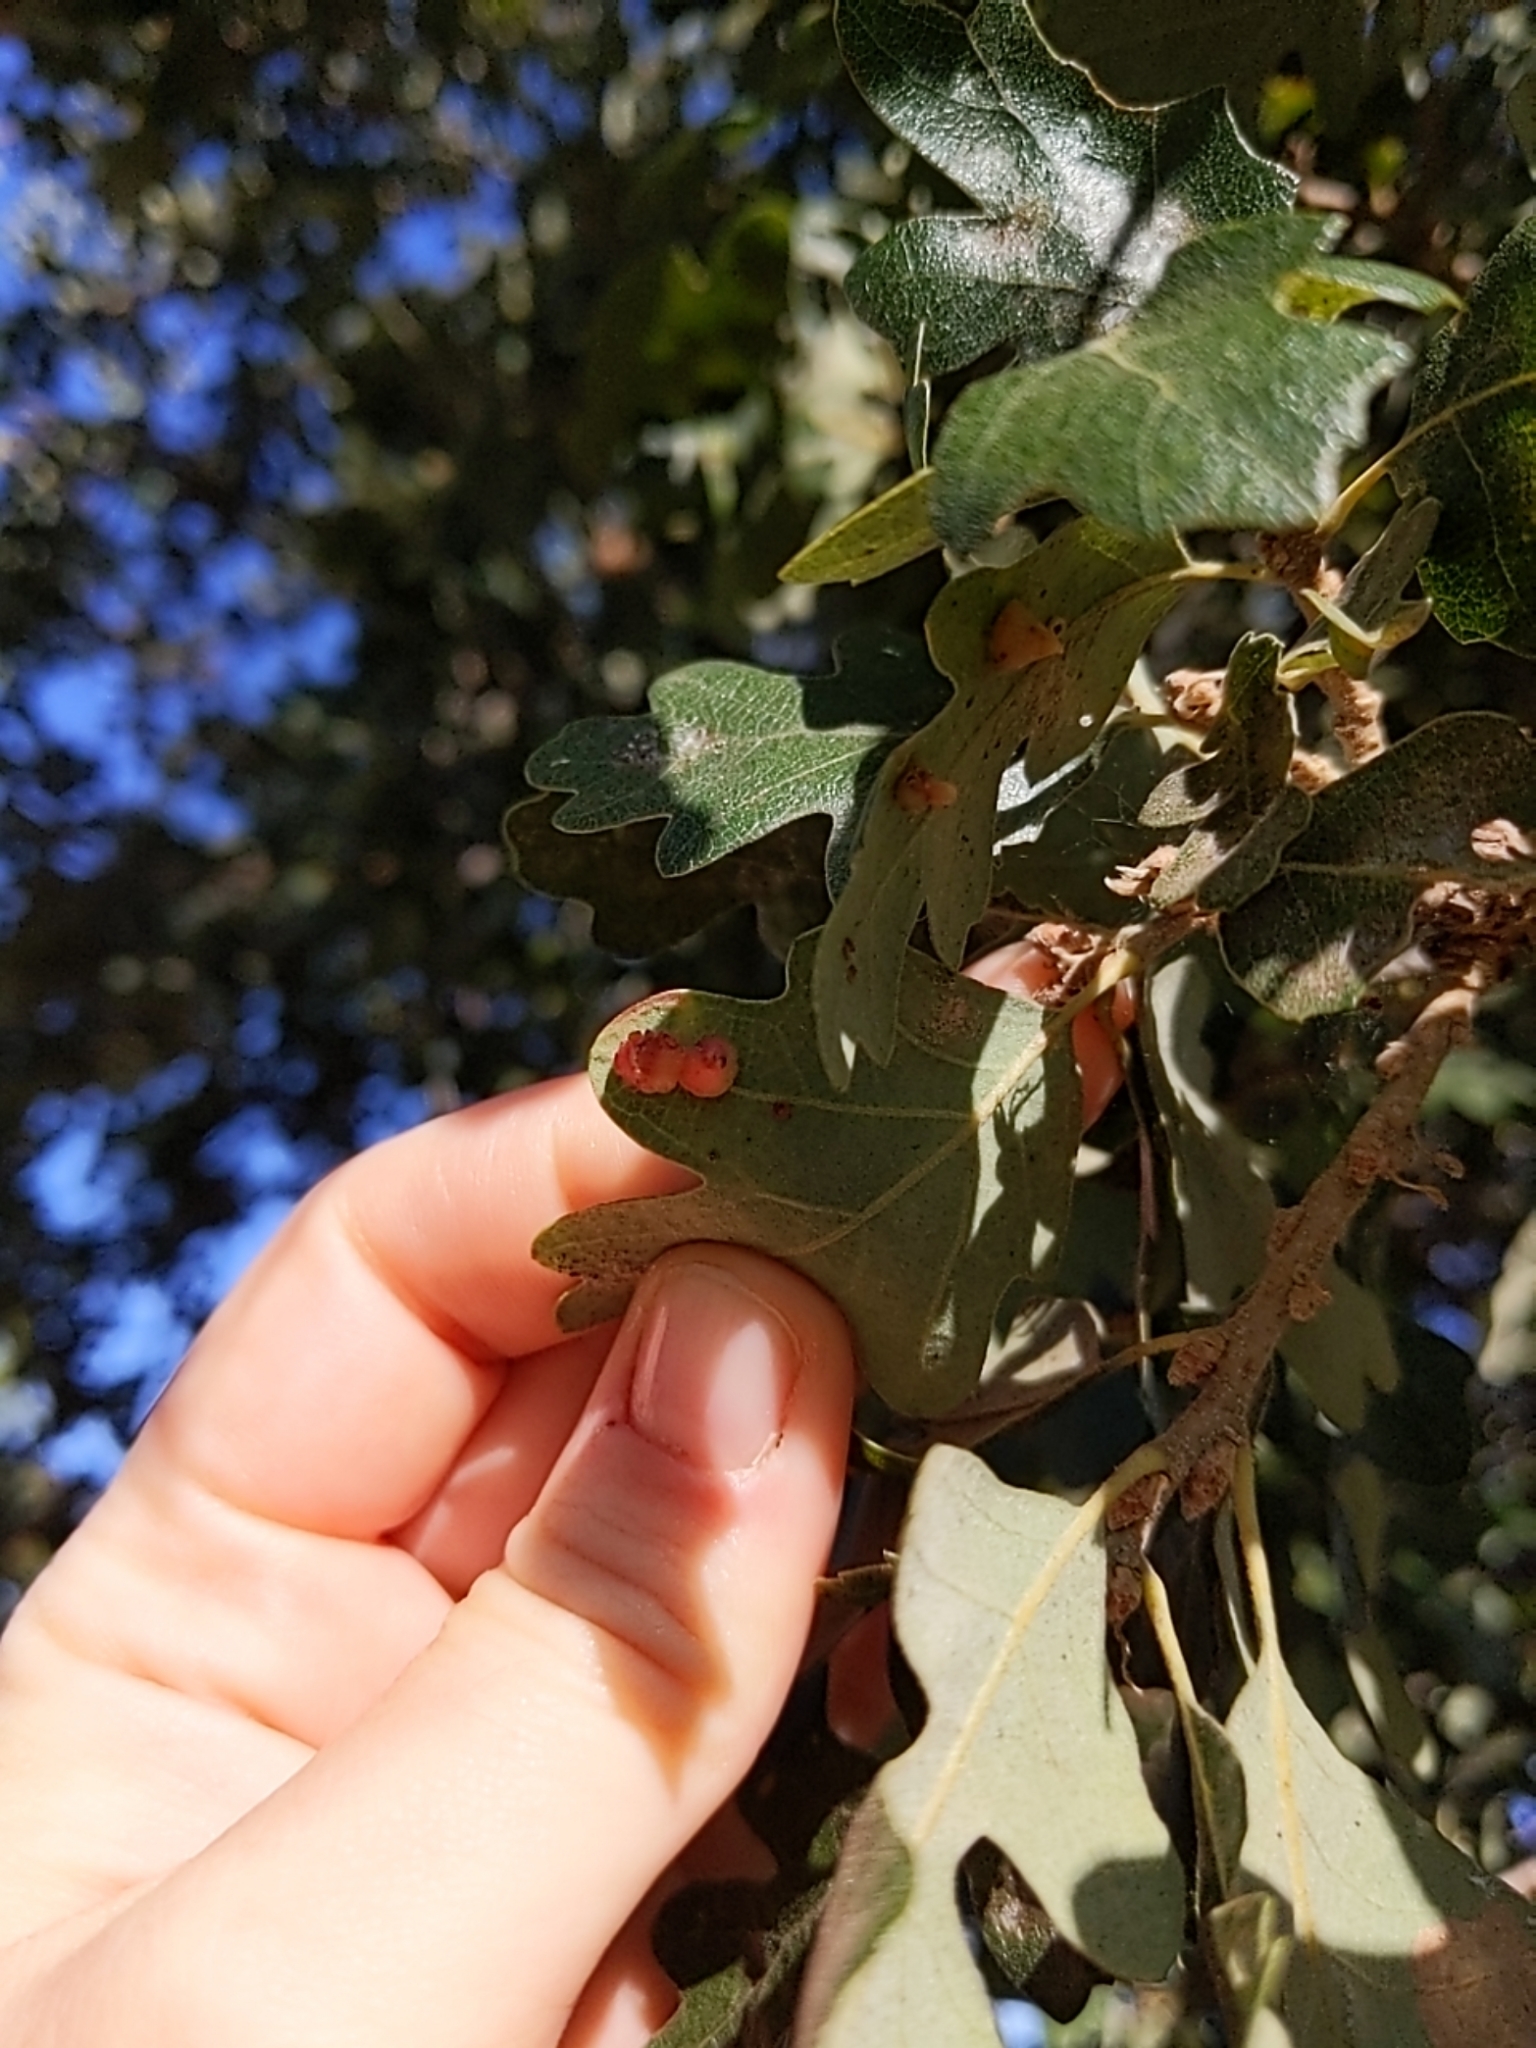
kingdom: Animalia
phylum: Arthropoda
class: Insecta
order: Hymenoptera
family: Cynipidae
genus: Andricus
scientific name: Andricus
